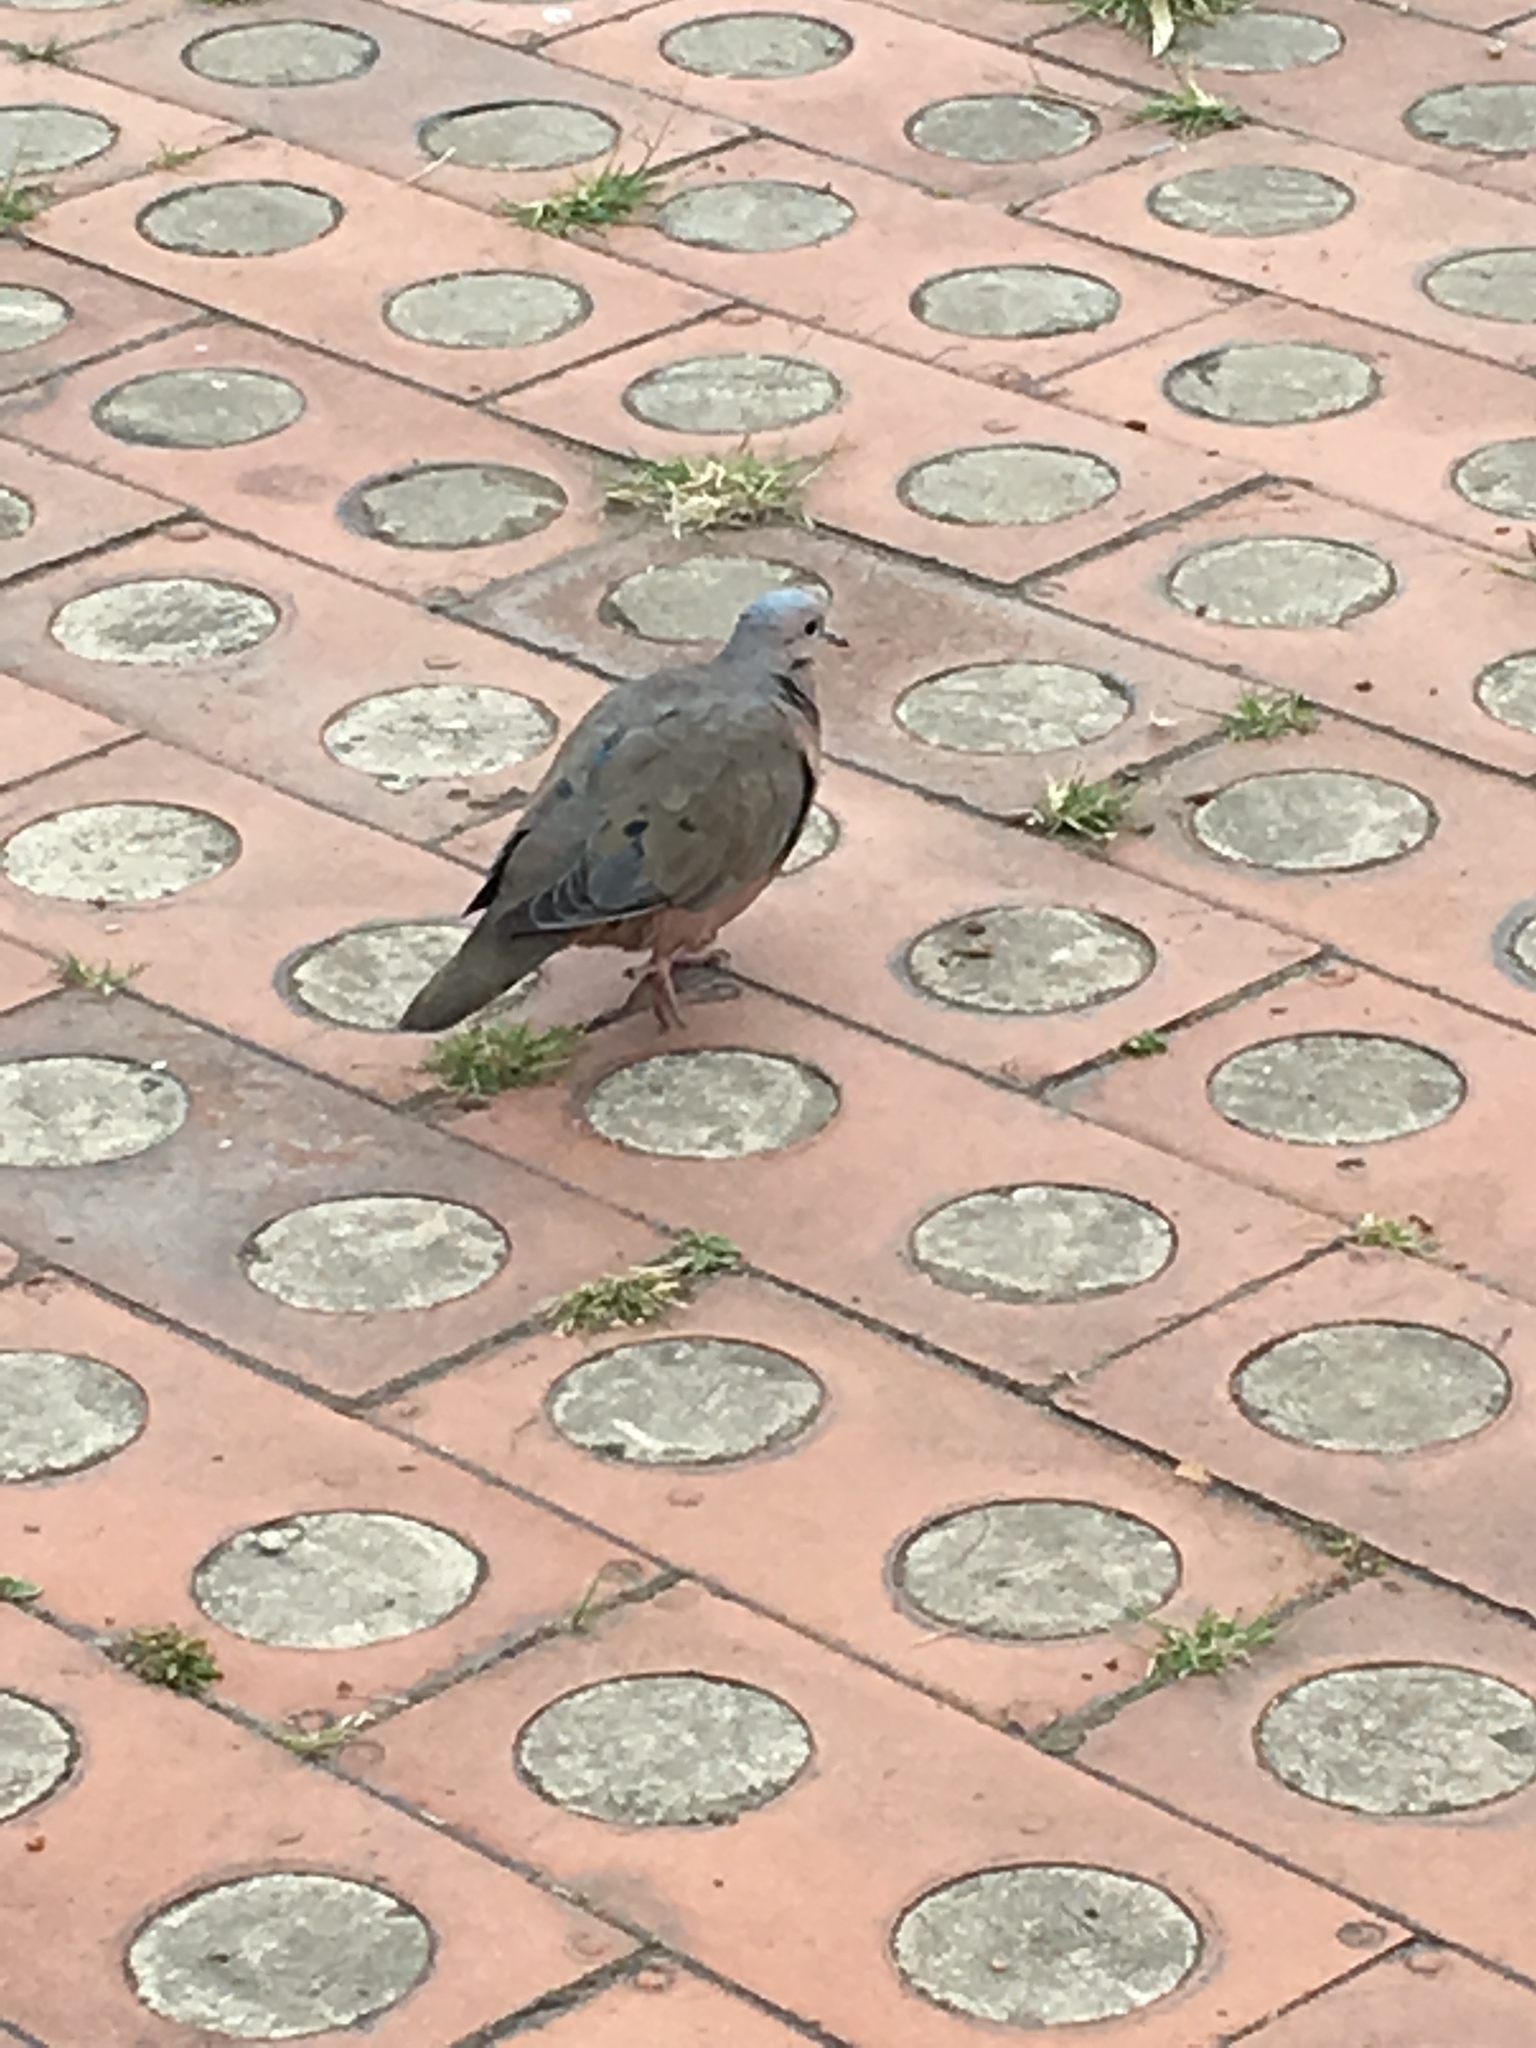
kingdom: Animalia
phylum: Chordata
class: Aves
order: Columbiformes
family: Columbidae
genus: Zenaida
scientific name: Zenaida auriculata
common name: Eared dove
